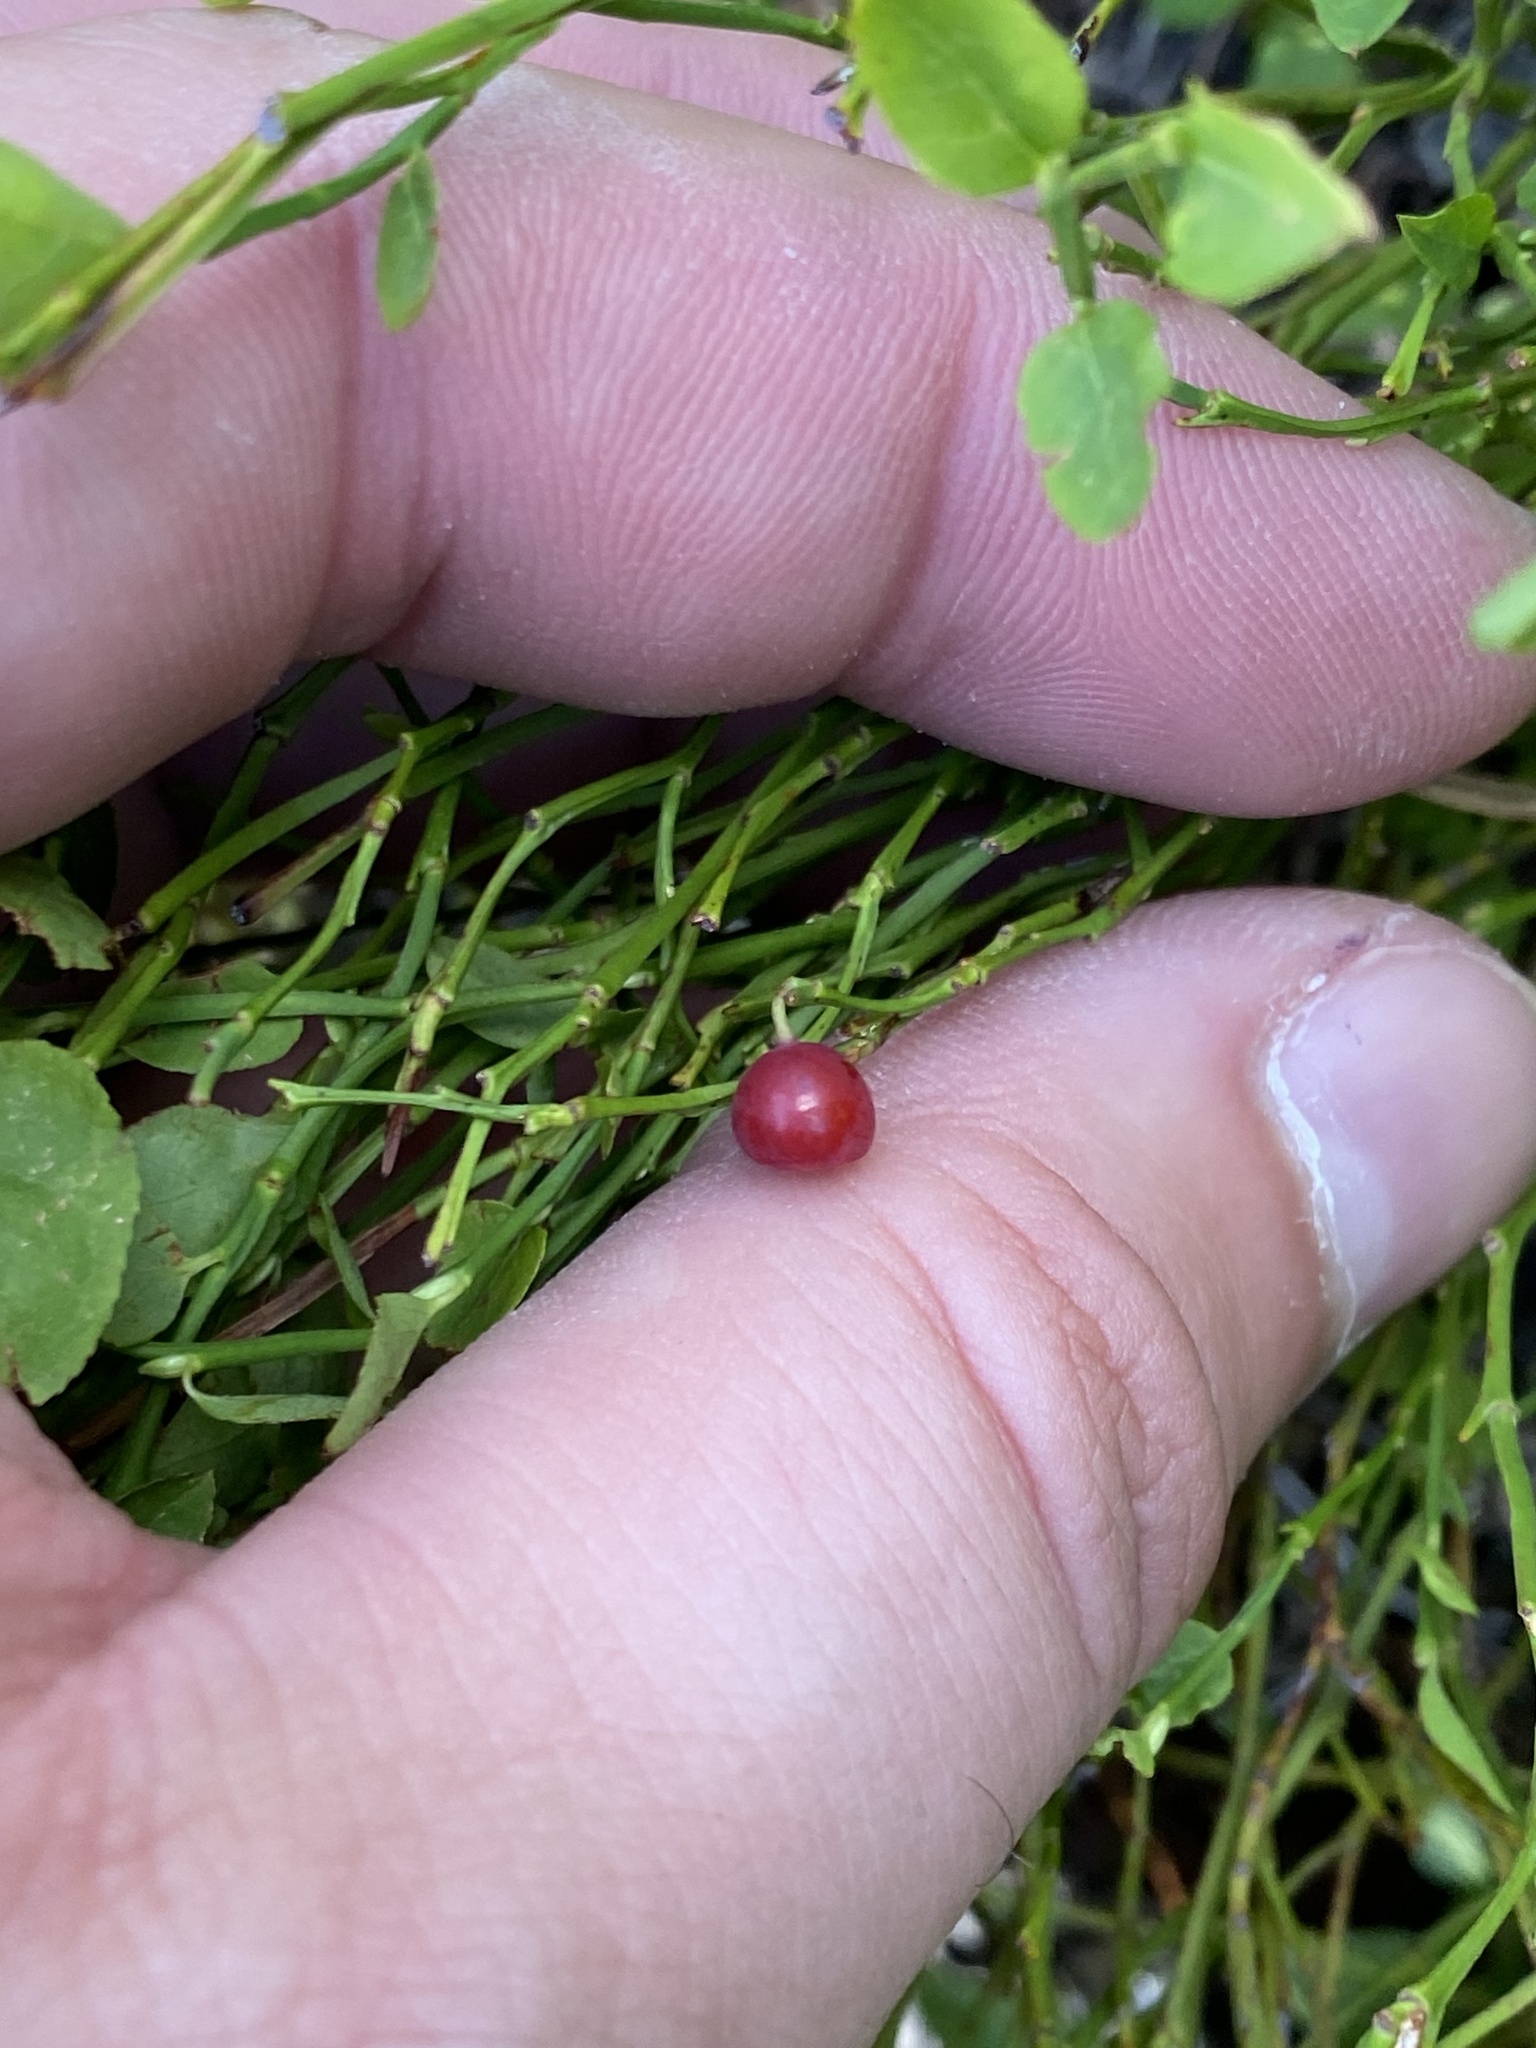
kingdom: Plantae
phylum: Tracheophyta
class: Magnoliopsida
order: Ericales
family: Ericaceae
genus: Vaccinium
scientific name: Vaccinium scoparium
